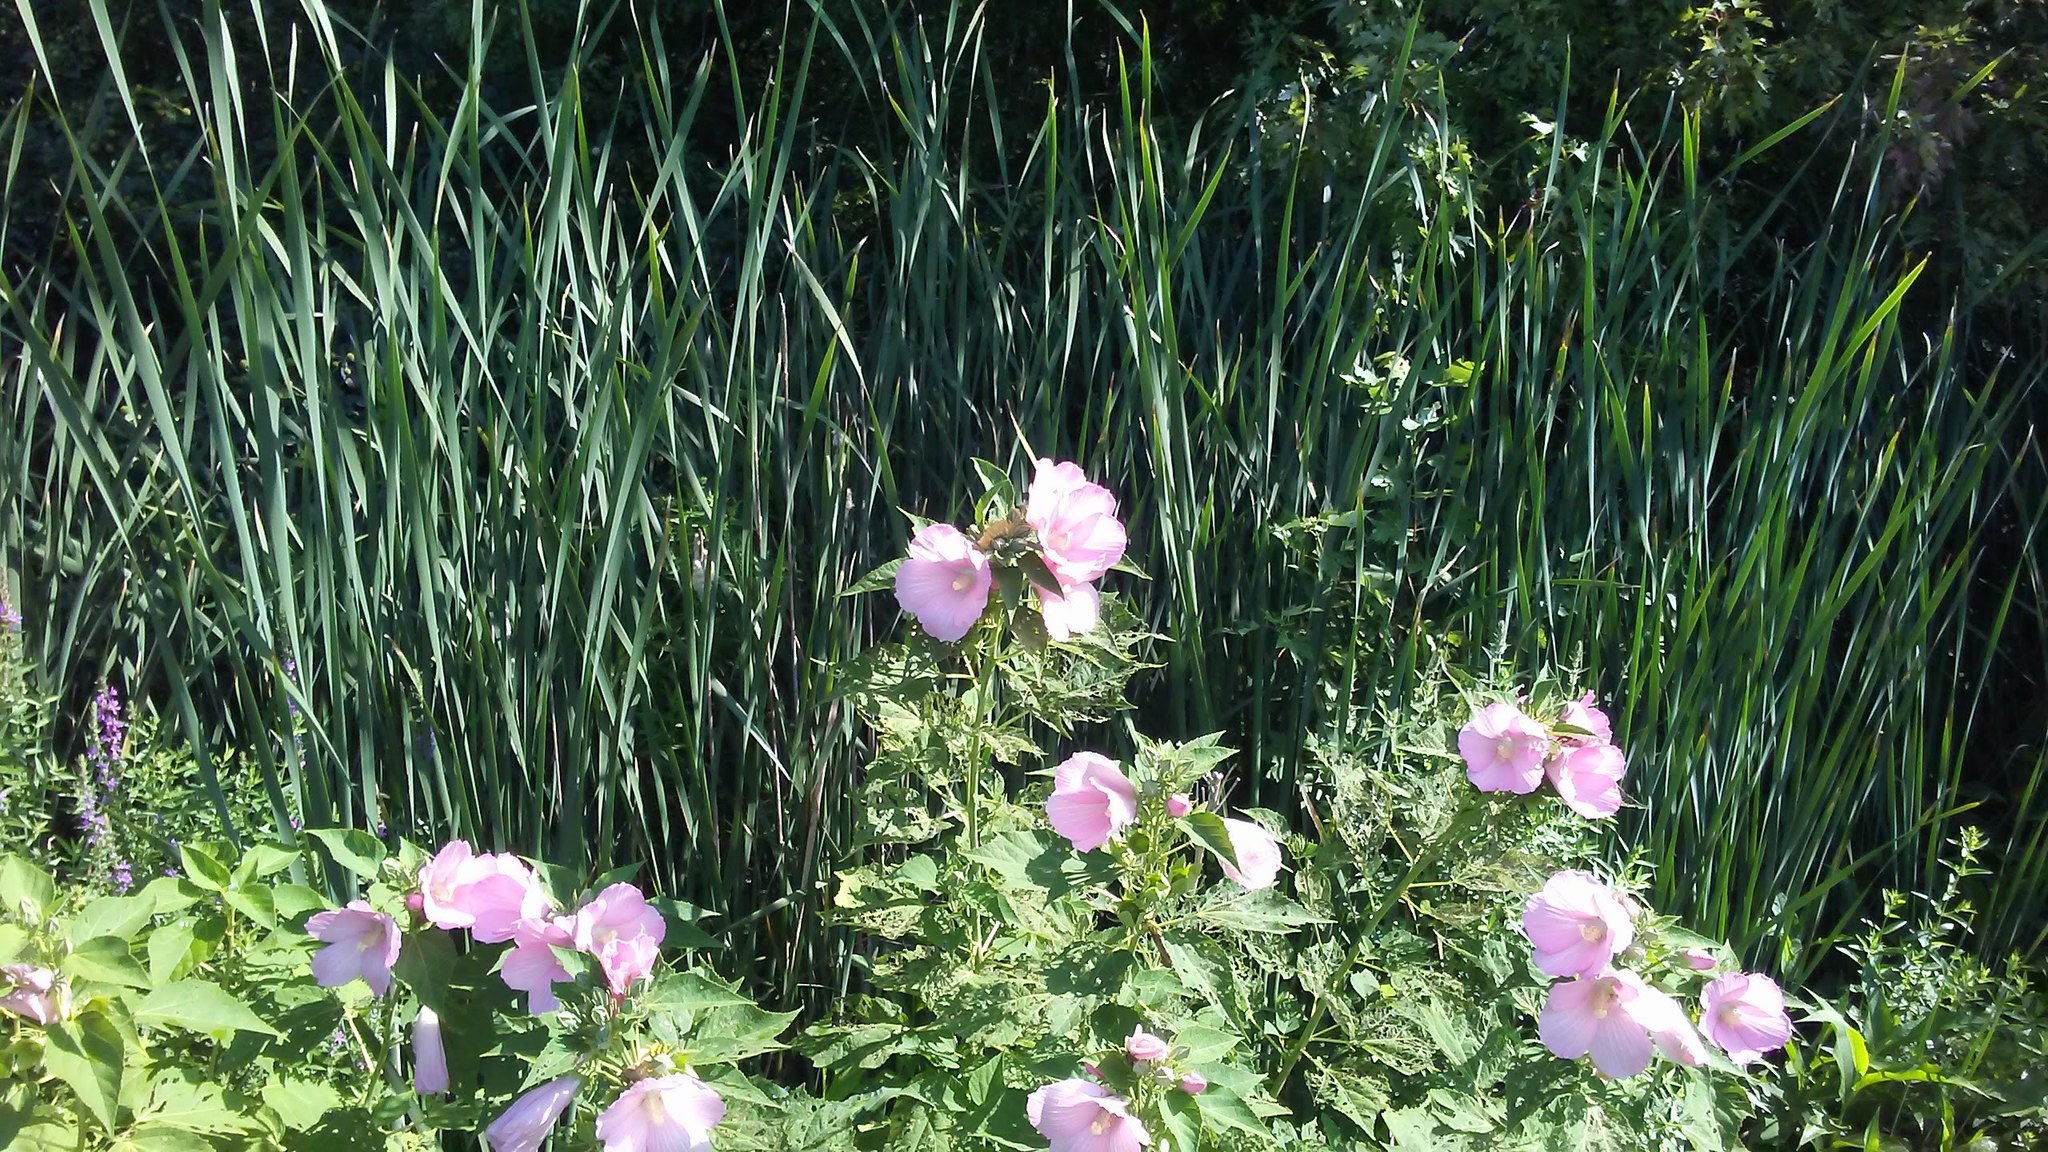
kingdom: Plantae
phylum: Tracheophyta
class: Magnoliopsida
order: Malvales
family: Malvaceae
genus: Hibiscus
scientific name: Hibiscus moscheutos
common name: Common rose-mallow
